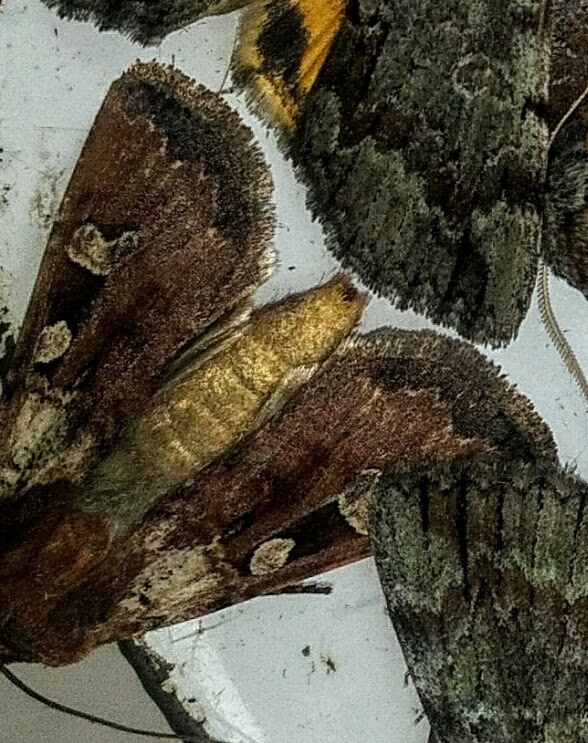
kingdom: Animalia
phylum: Arthropoda
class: Insecta
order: Lepidoptera
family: Noctuidae
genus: Euxoa
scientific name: Euxoa basalis
